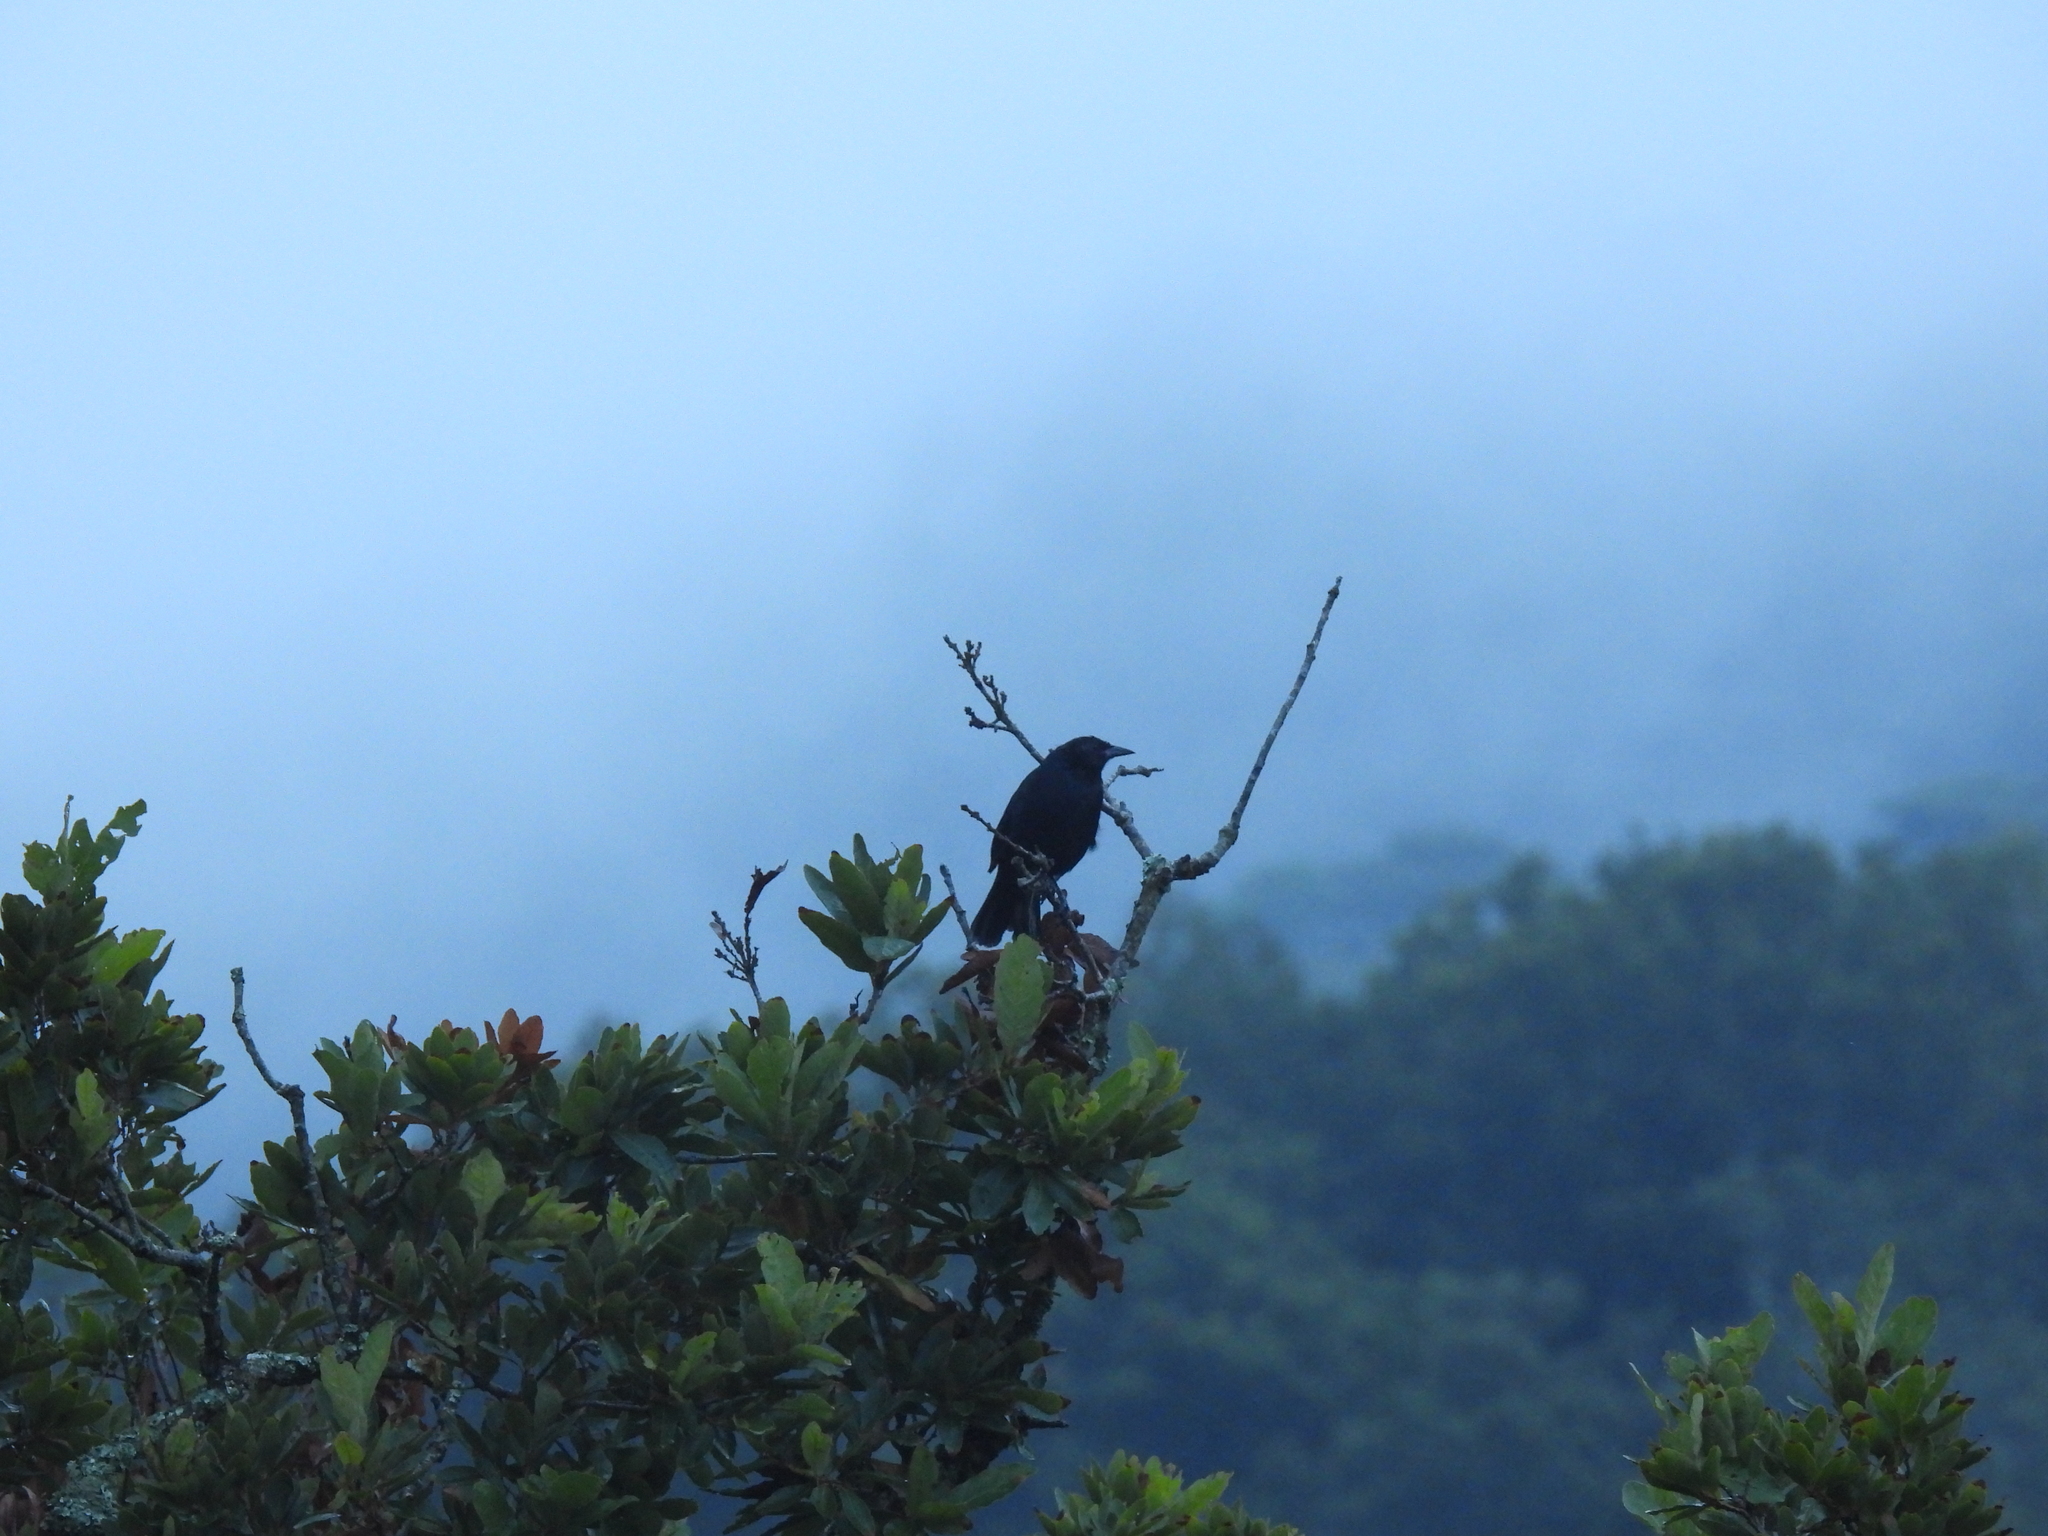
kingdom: Animalia
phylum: Chordata
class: Aves
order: Passeriformes
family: Icteridae
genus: Dives
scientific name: Dives dives
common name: Melodious blackbird
